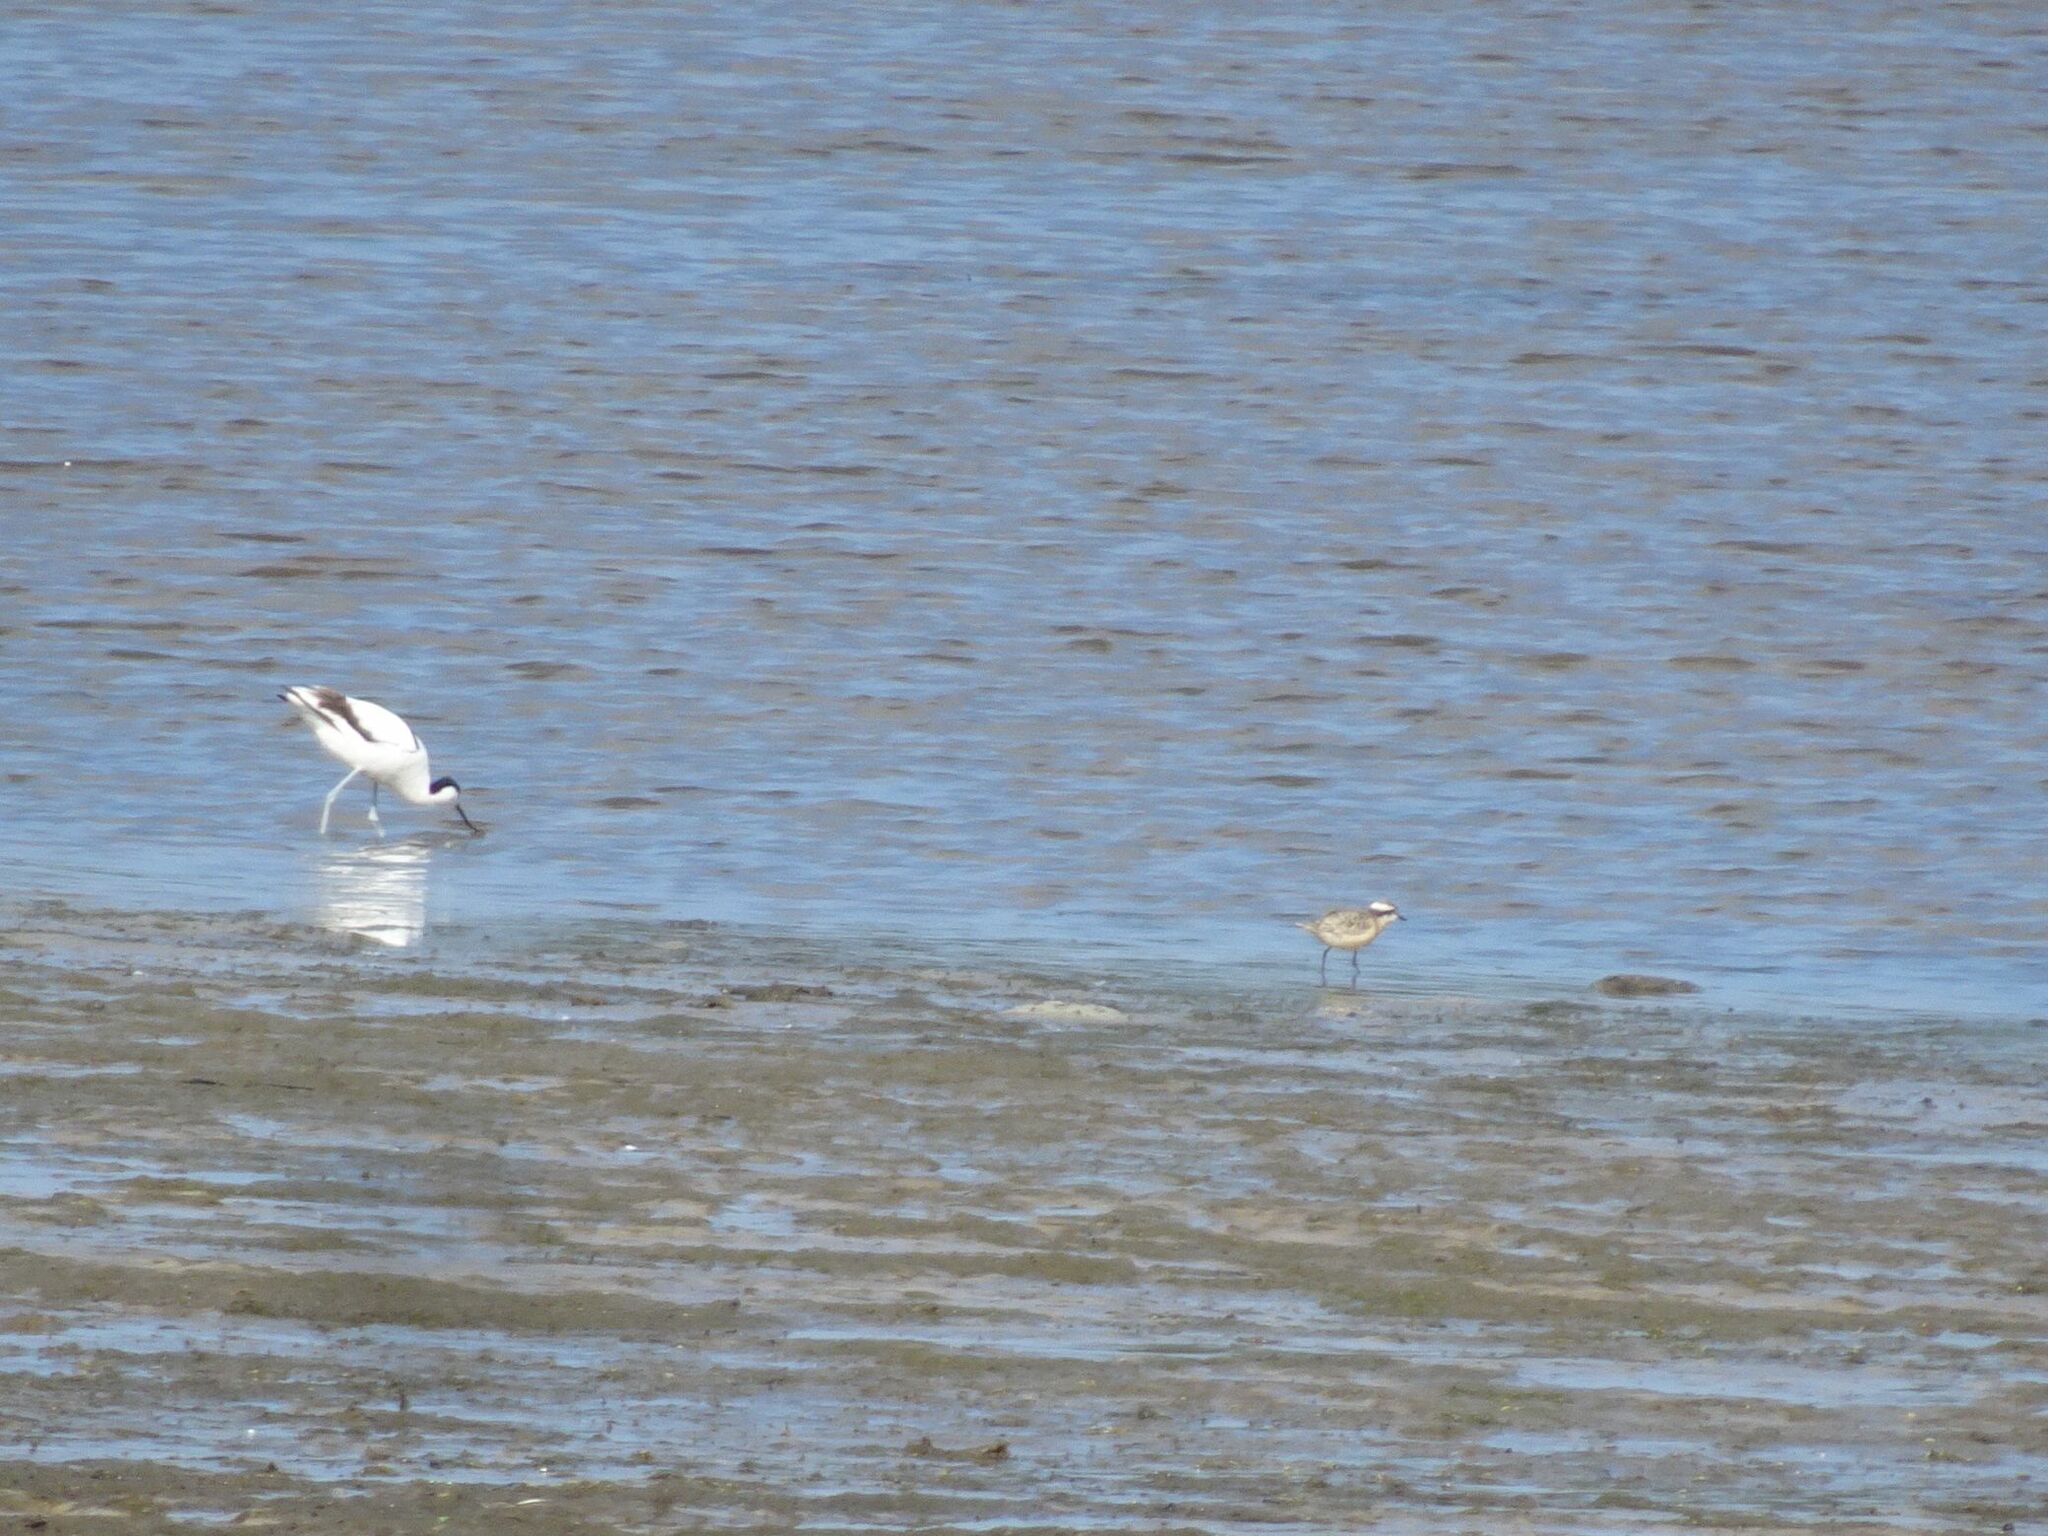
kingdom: Animalia
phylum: Chordata
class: Aves
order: Charadriiformes
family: Recurvirostridae
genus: Recurvirostra
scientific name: Recurvirostra avosetta
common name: Pied avocet
